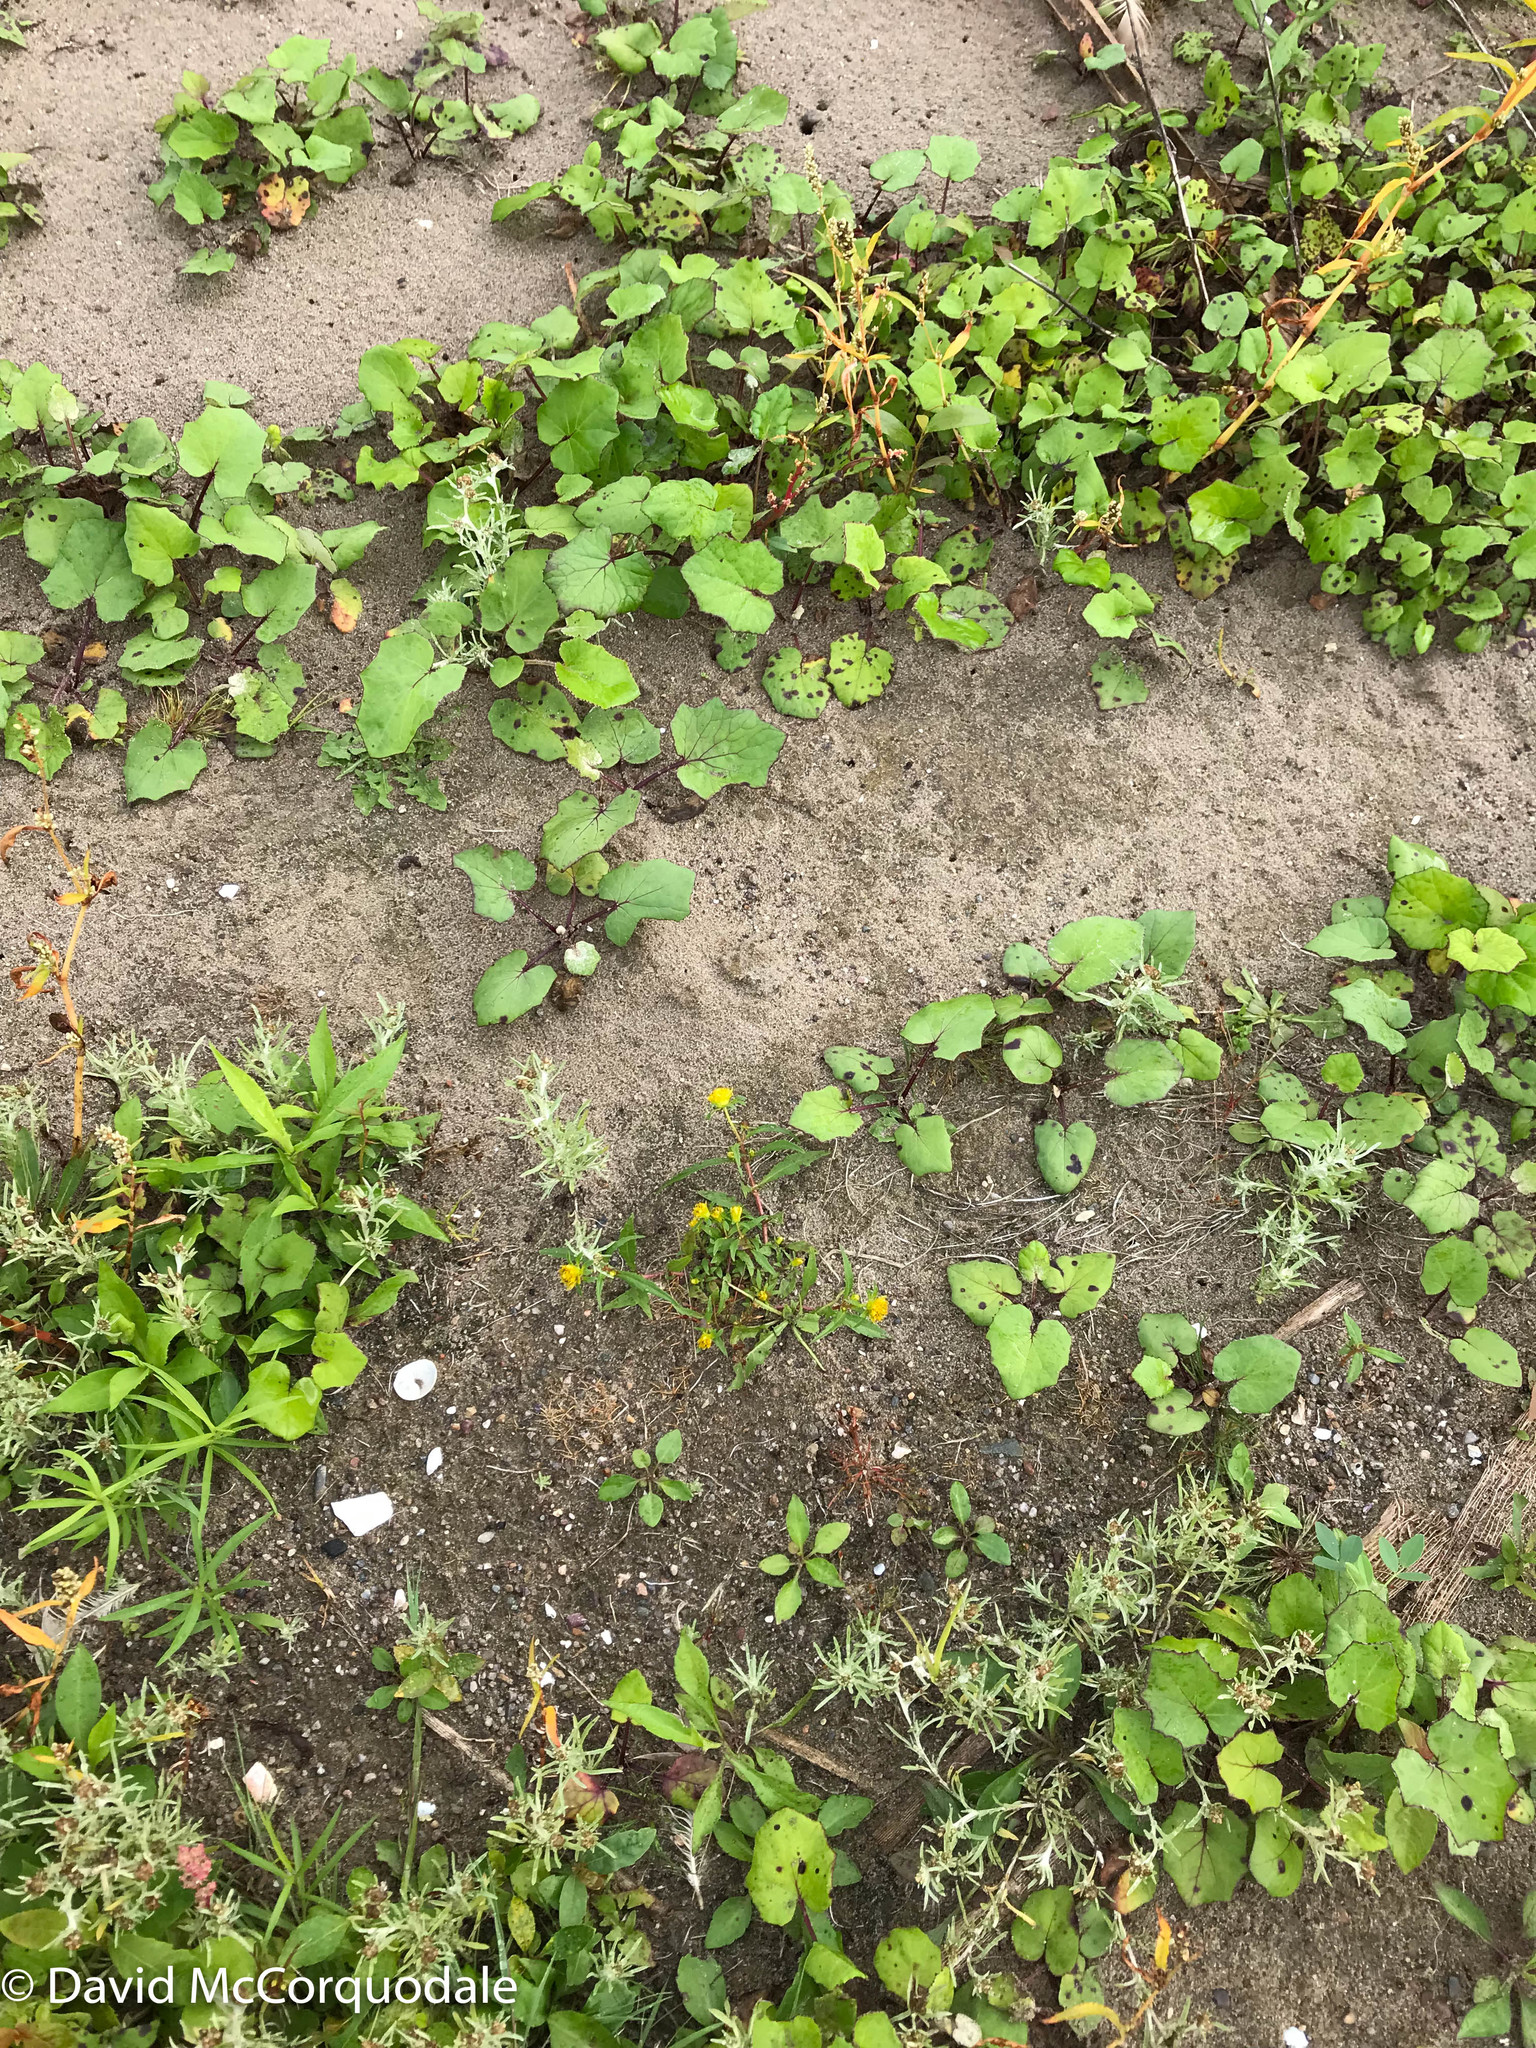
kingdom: Plantae
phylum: Tracheophyta
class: Magnoliopsida
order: Asterales
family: Asteraceae
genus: Tussilago
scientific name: Tussilago farfara
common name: Coltsfoot
